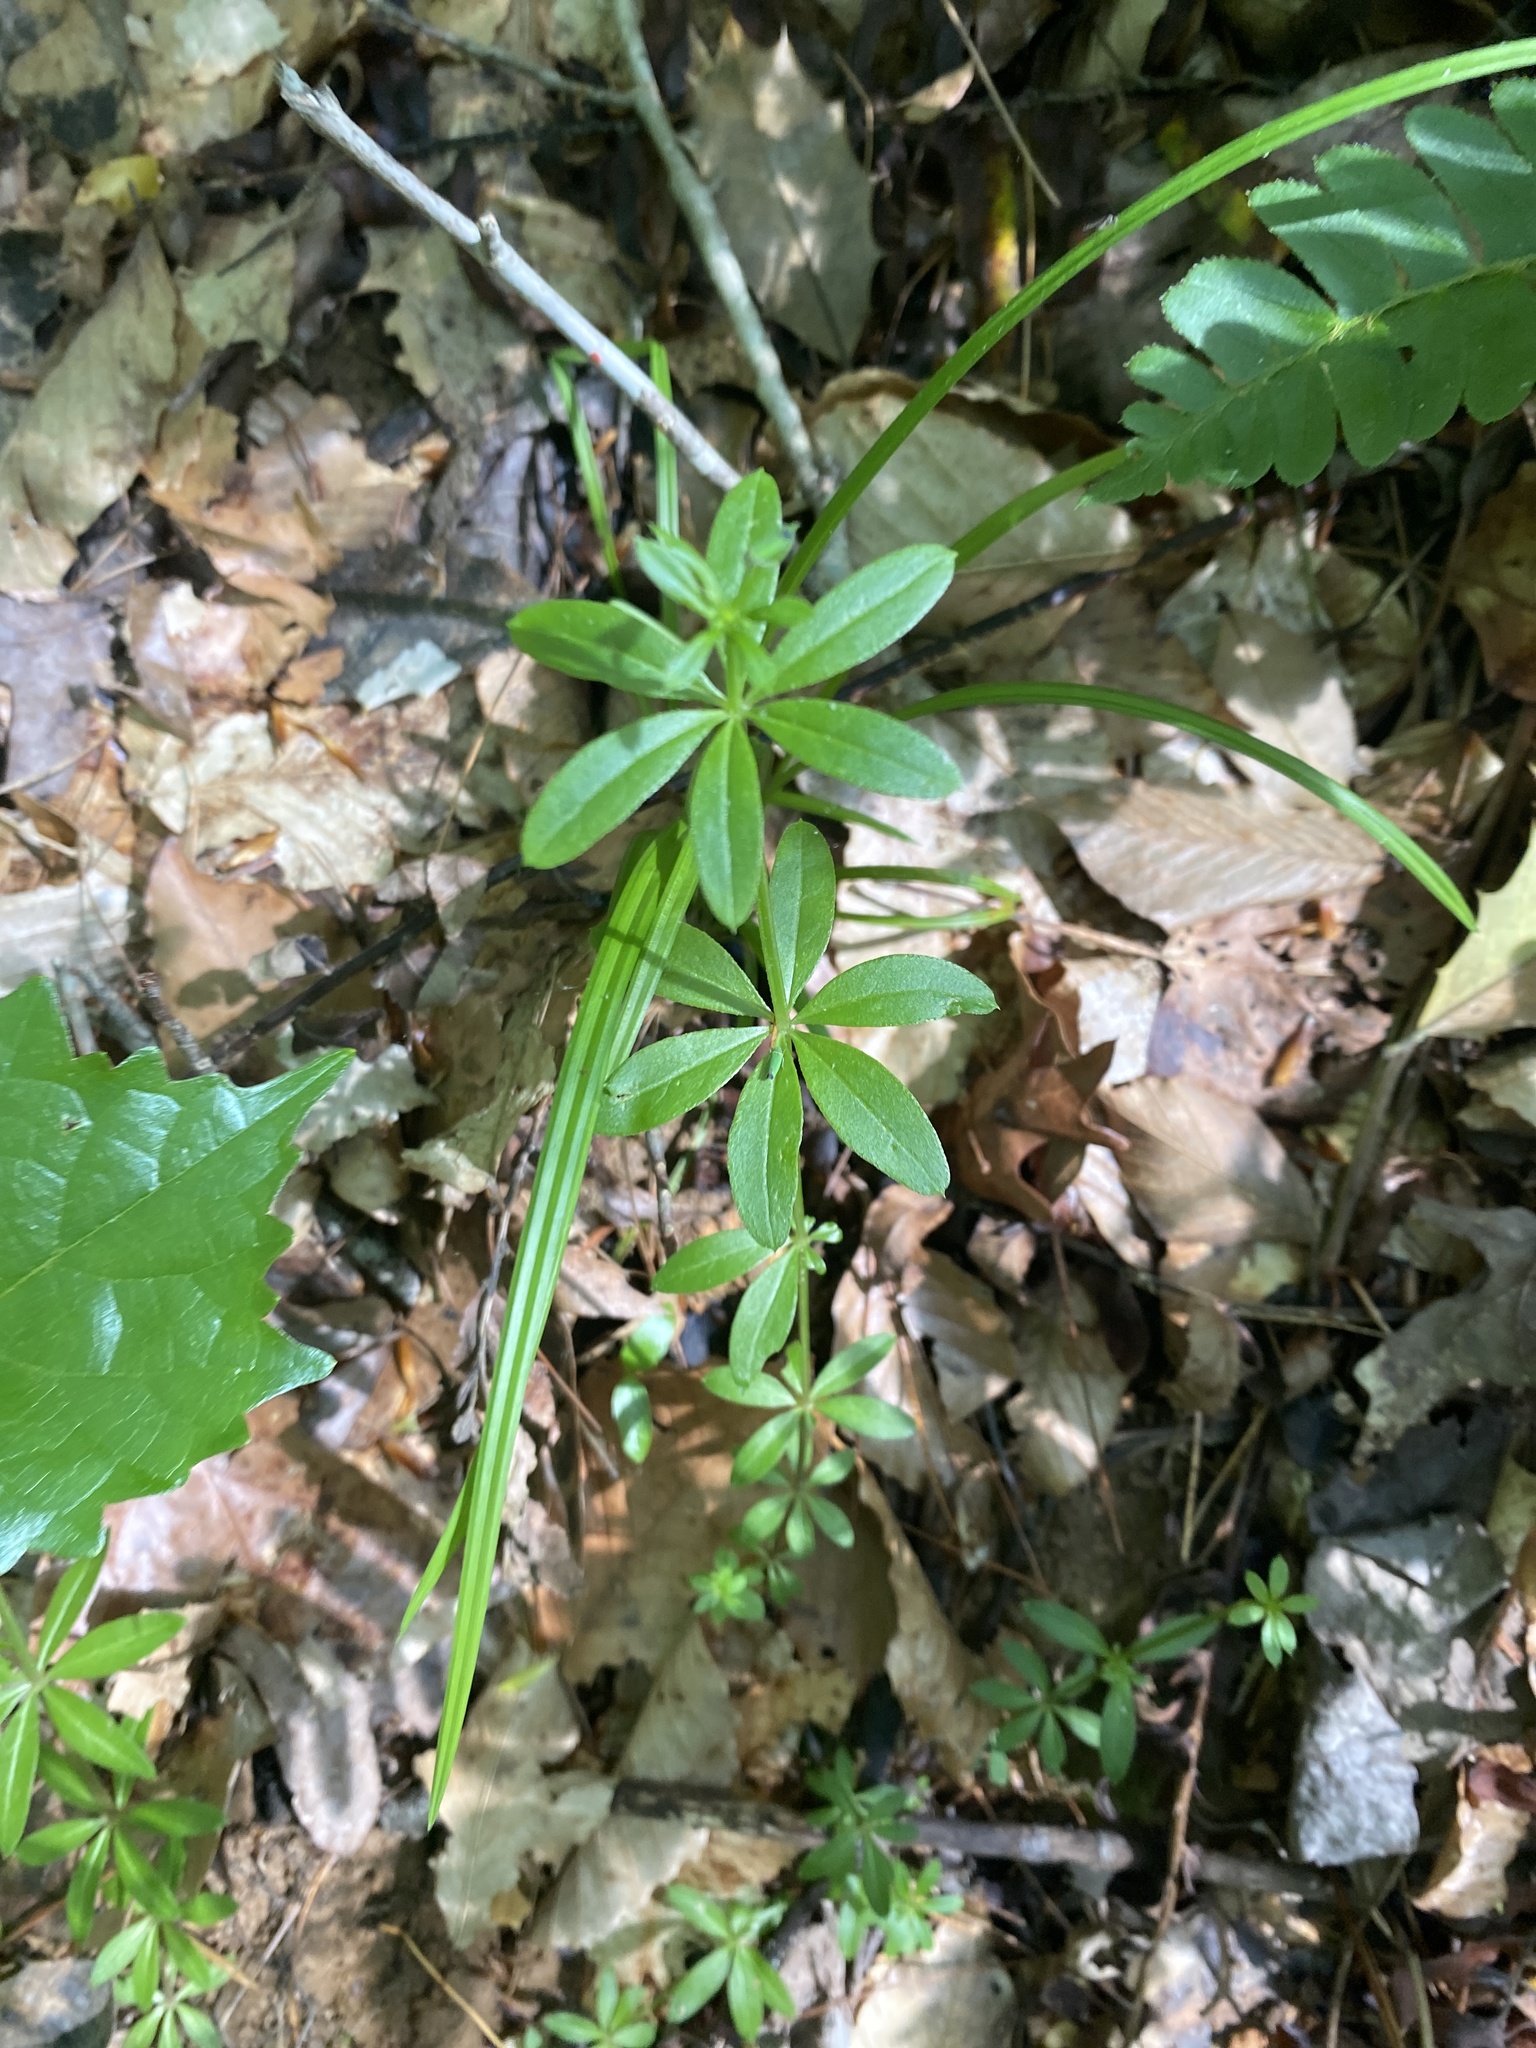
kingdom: Plantae
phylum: Tracheophyta
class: Magnoliopsida
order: Gentianales
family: Rubiaceae
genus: Galium
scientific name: Galium triflorum
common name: Fragrant bedstraw
